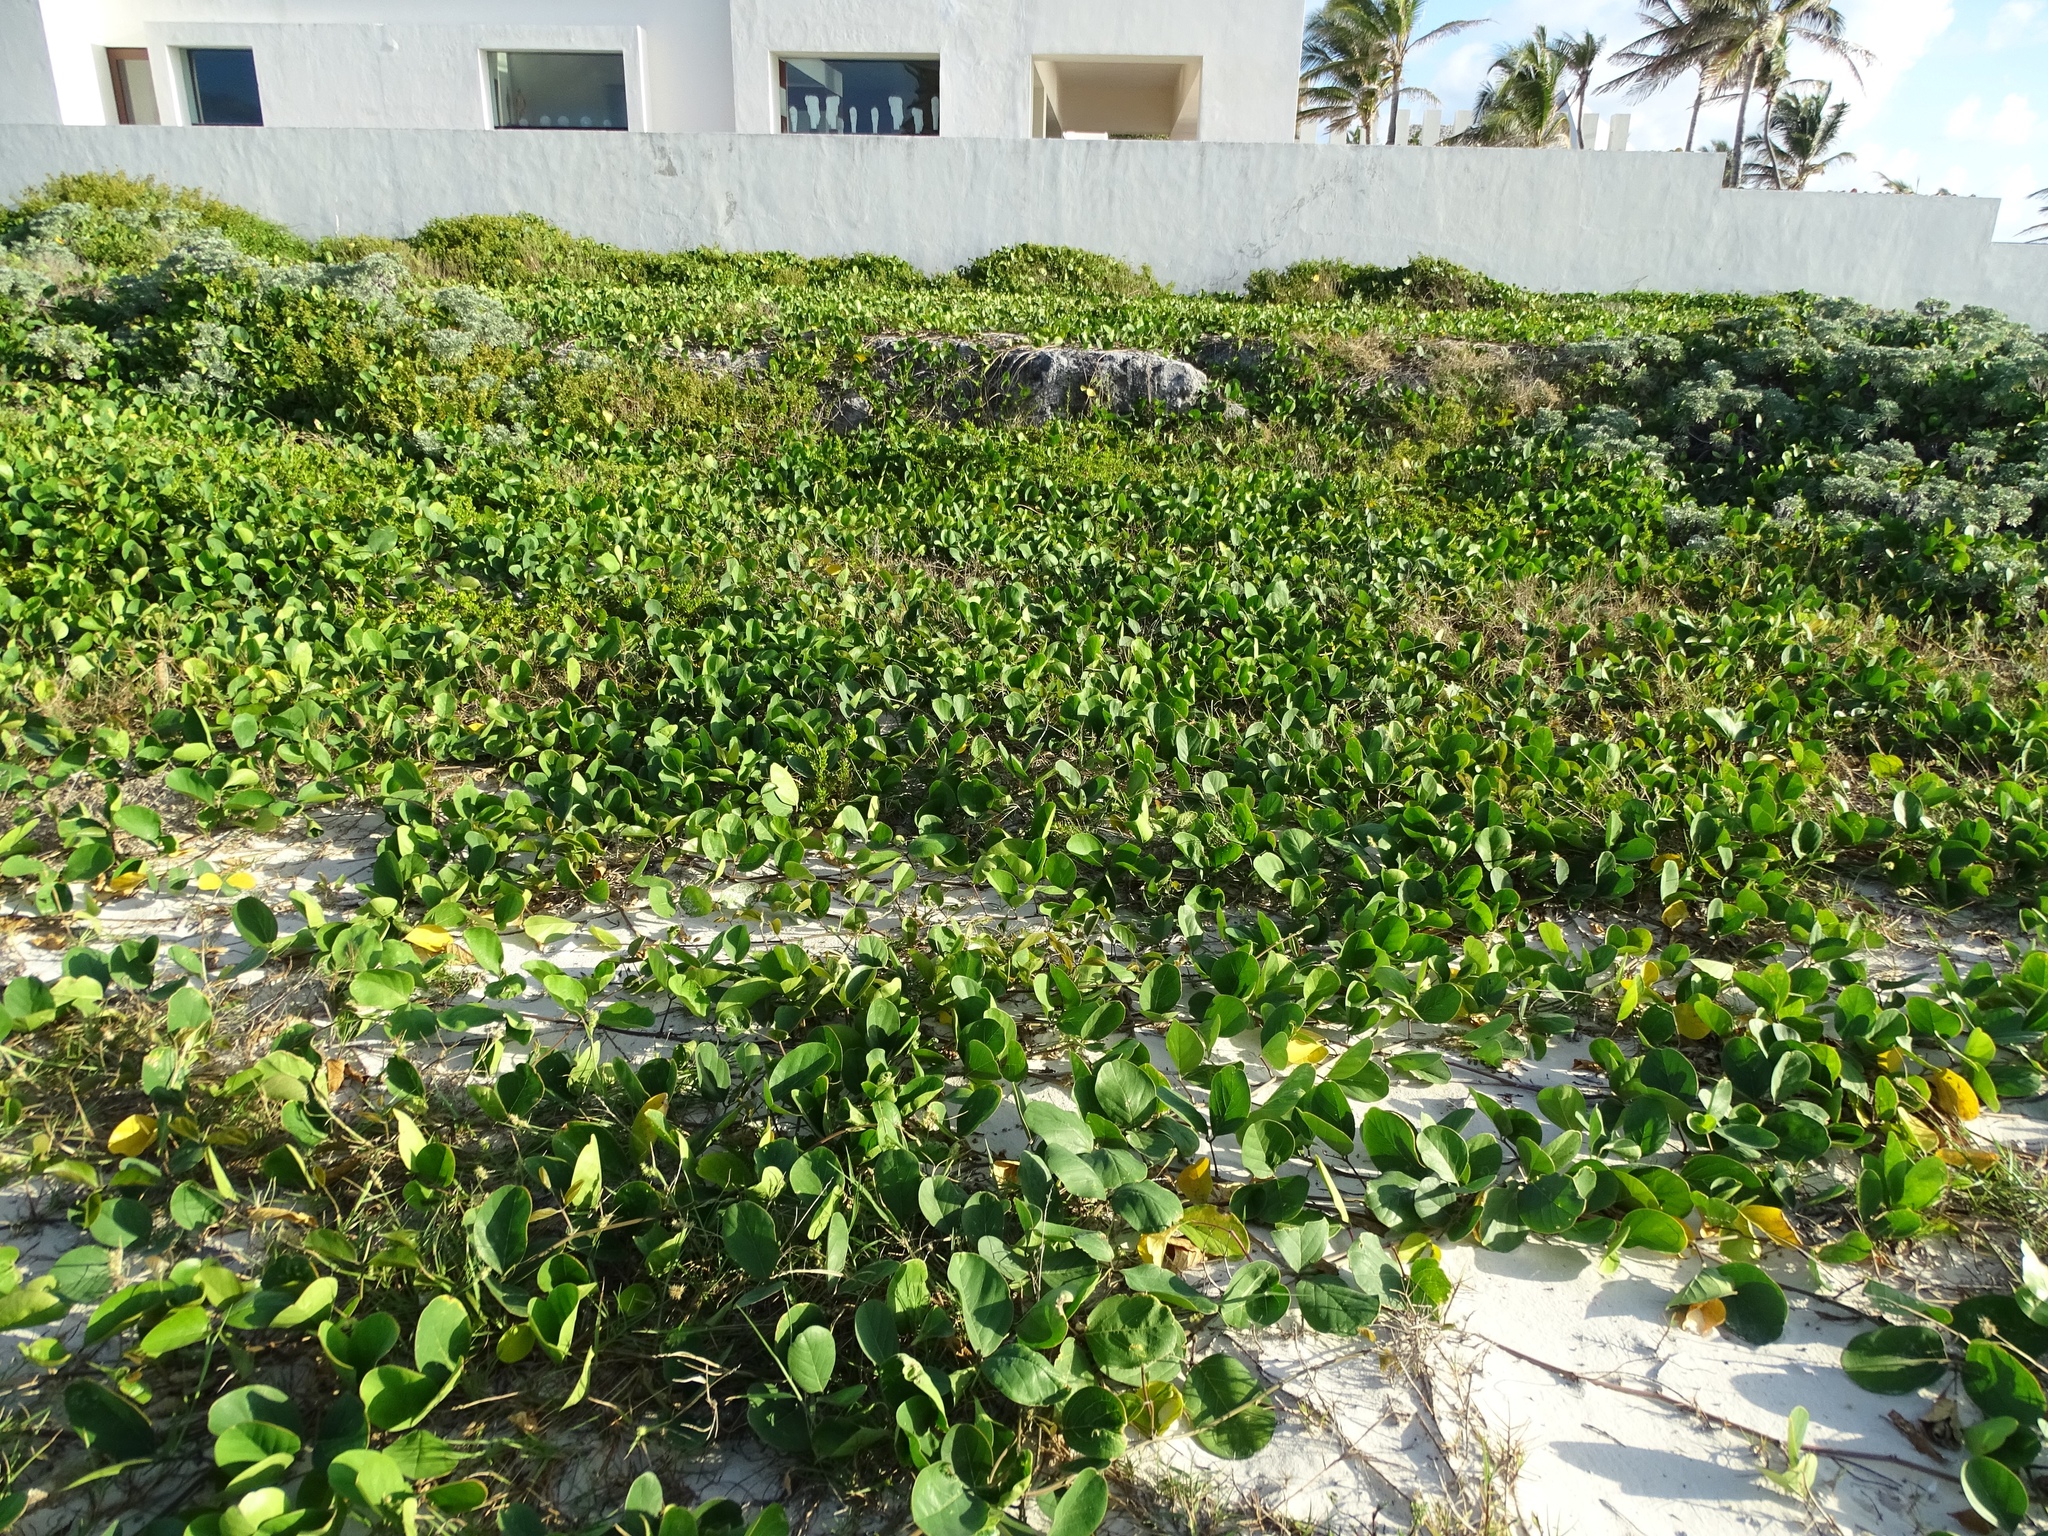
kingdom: Plantae
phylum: Tracheophyta
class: Magnoliopsida
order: Fabales
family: Fabaceae
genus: Canavalia
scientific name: Canavalia rosea
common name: Beach-bean
